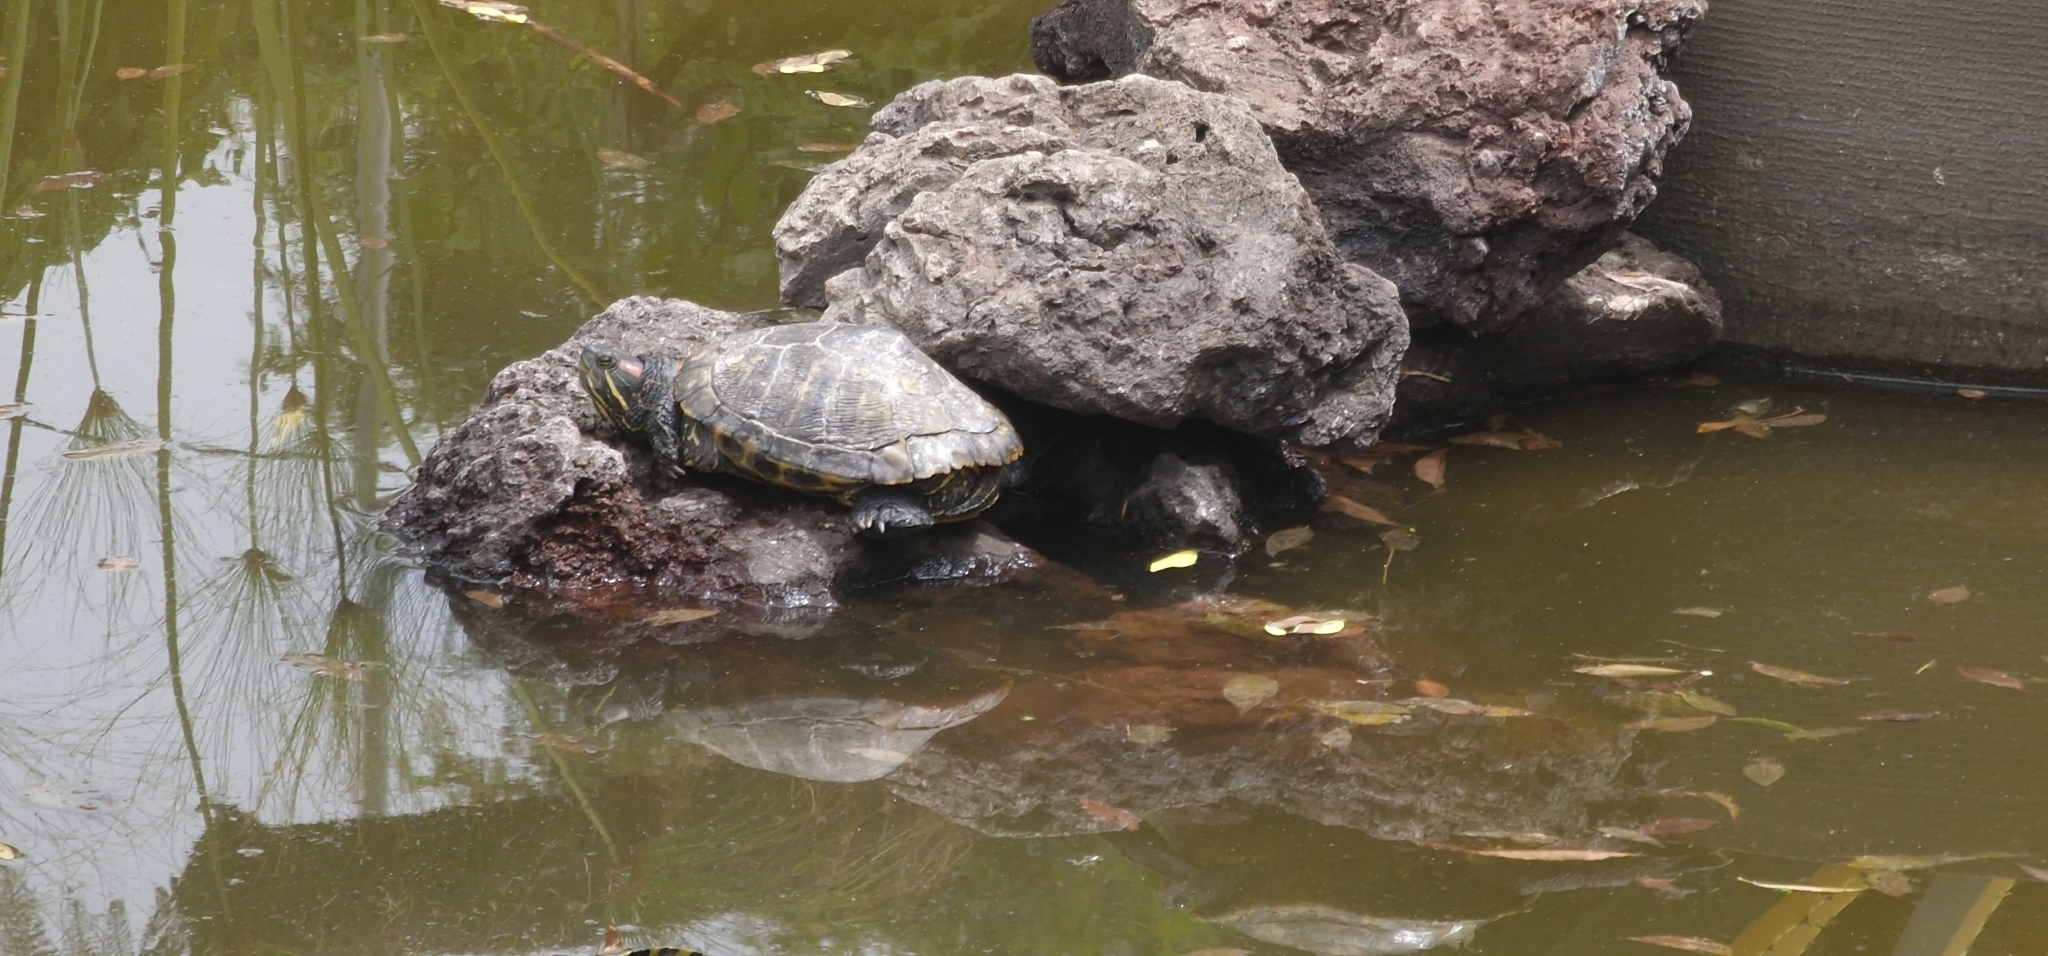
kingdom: Animalia
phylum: Chordata
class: Testudines
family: Emydidae
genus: Trachemys
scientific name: Trachemys scripta
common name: Slider
